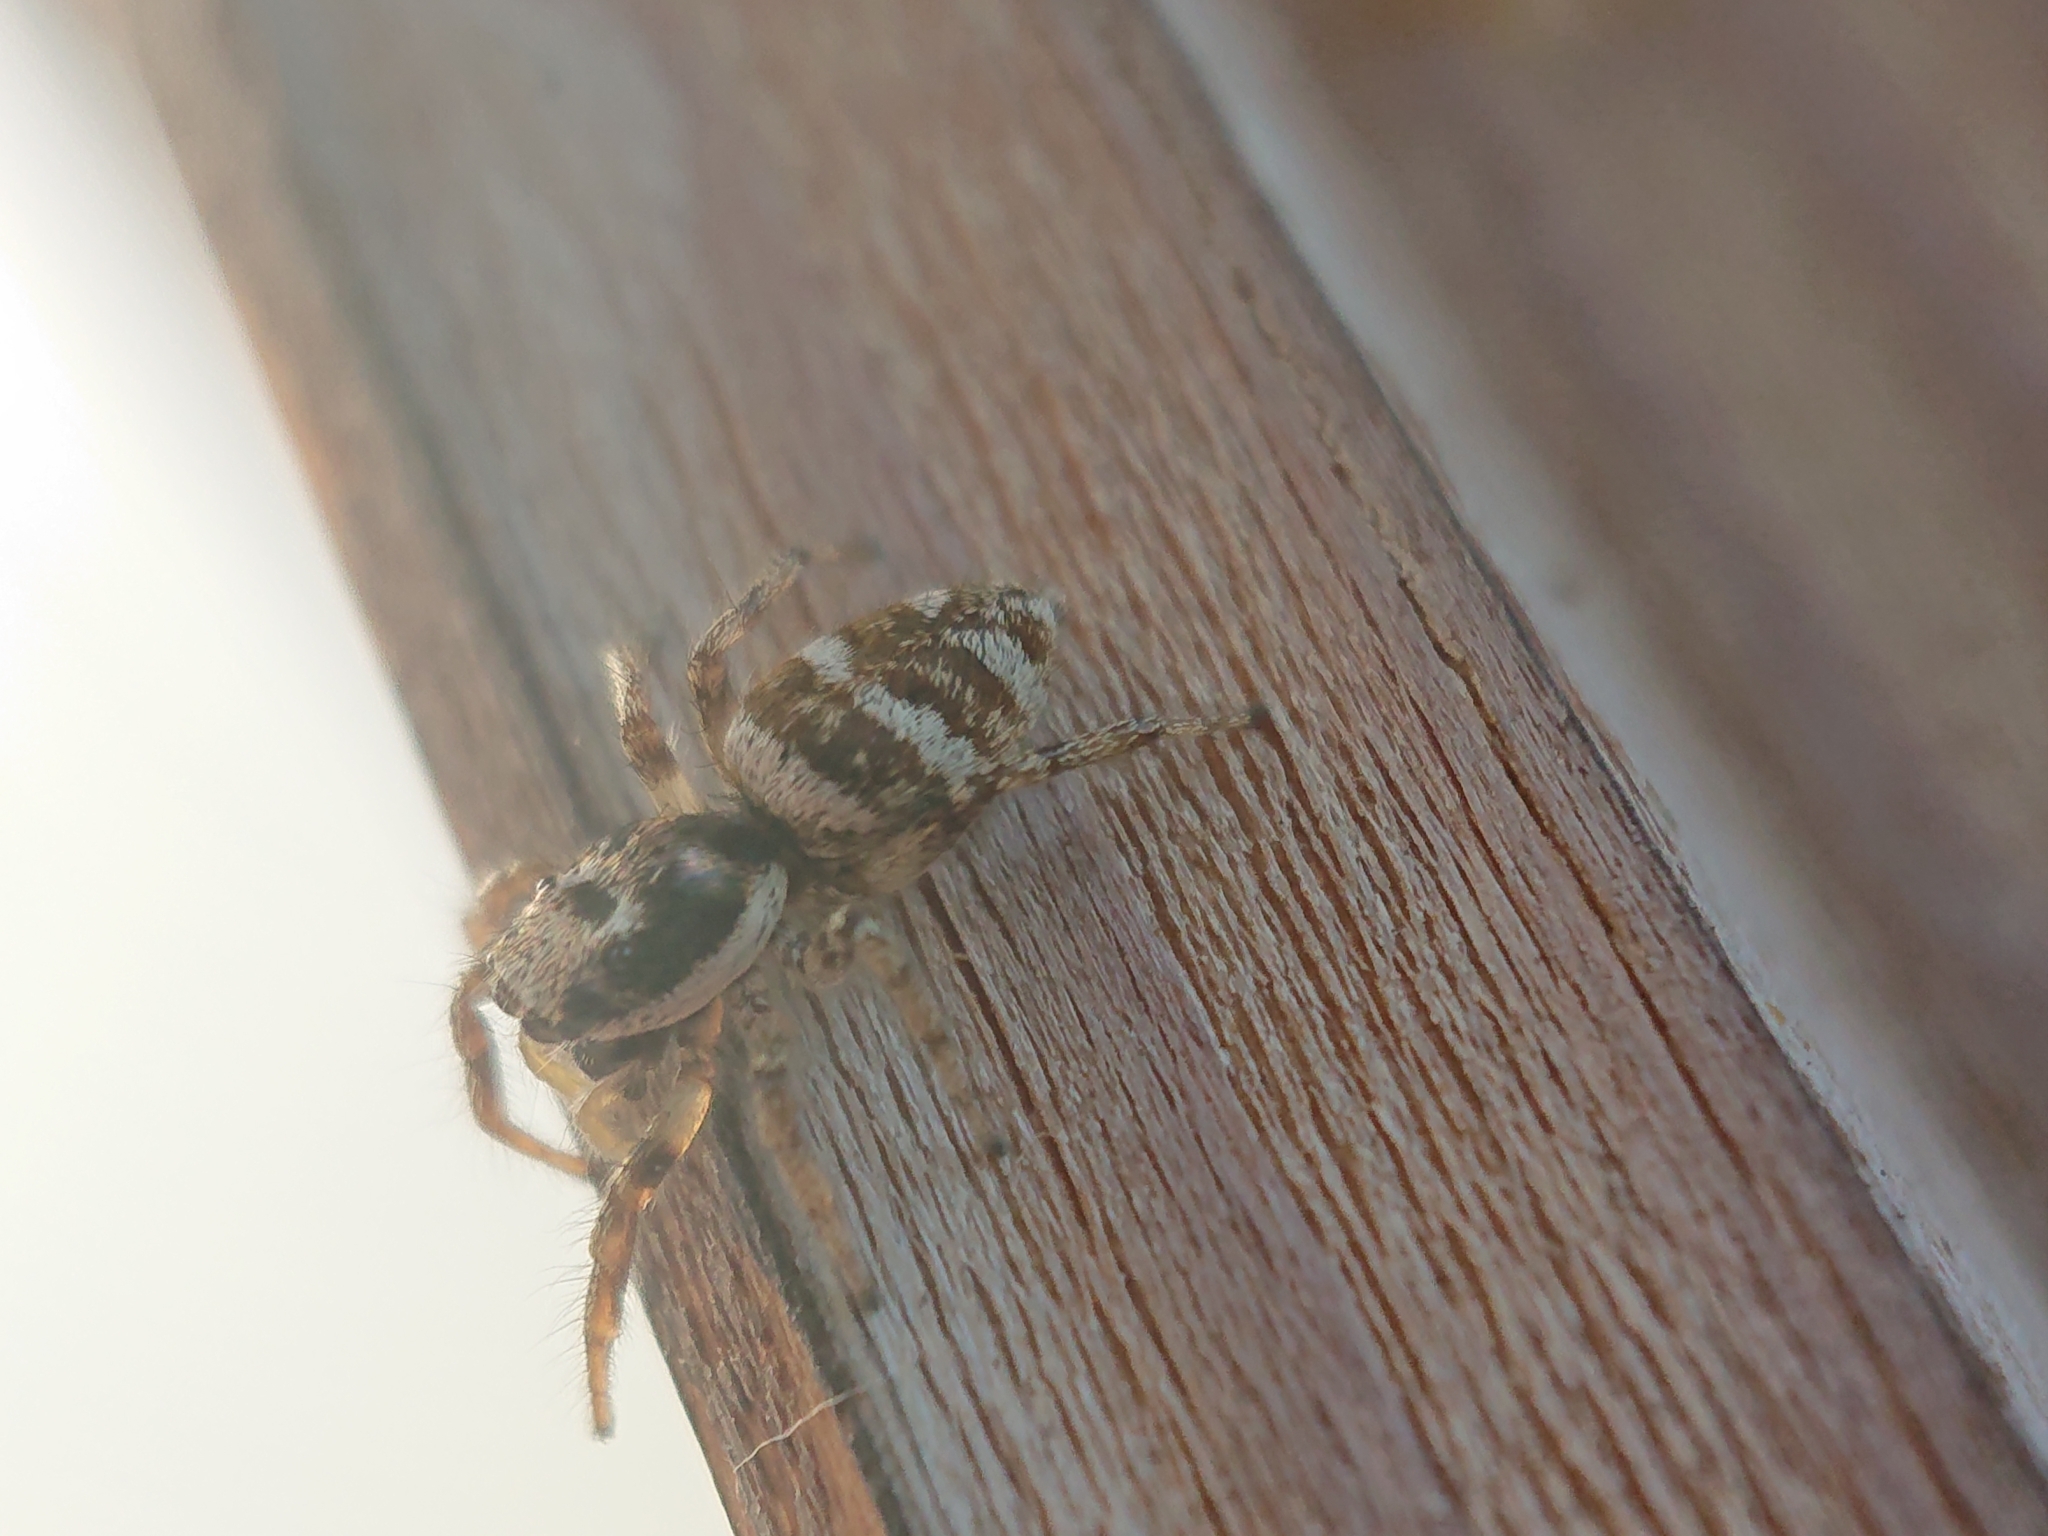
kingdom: Animalia
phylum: Arthropoda
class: Arachnida
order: Araneae
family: Salticidae
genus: Salticus
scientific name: Salticus scenicus
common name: Zebra jumper
